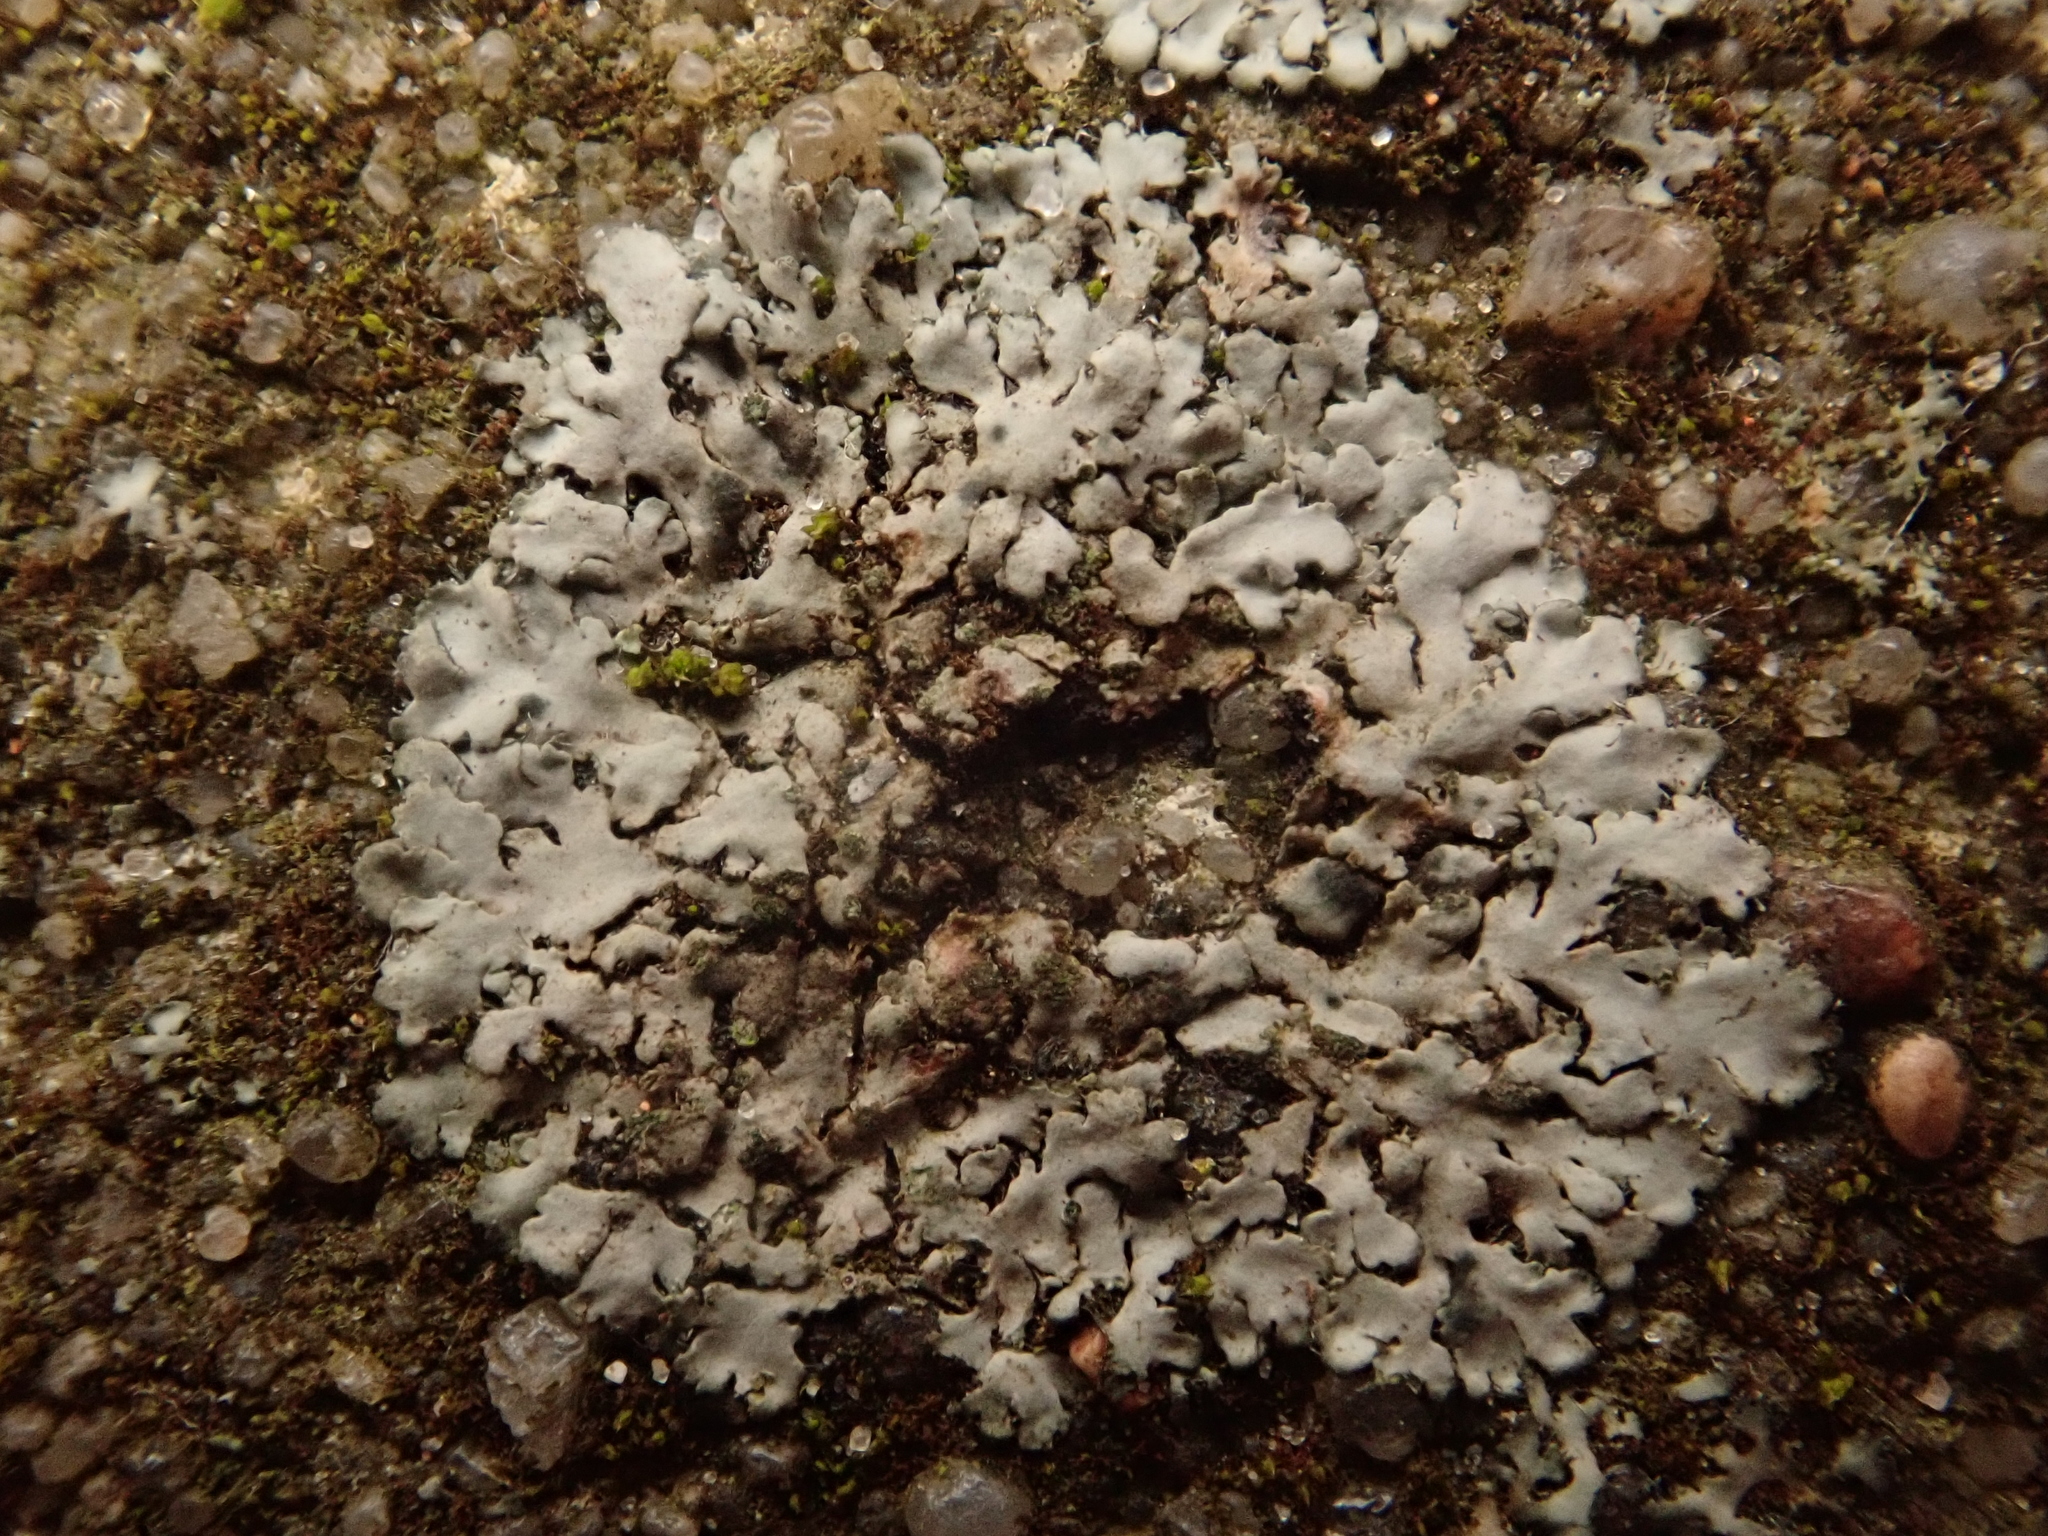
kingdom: Fungi
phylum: Ascomycota
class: Lecanoromycetes
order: Caliciales
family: Physciaceae
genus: Phaeophyscia
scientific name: Phaeophyscia orbicularis
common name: Mealy shadow lichen
